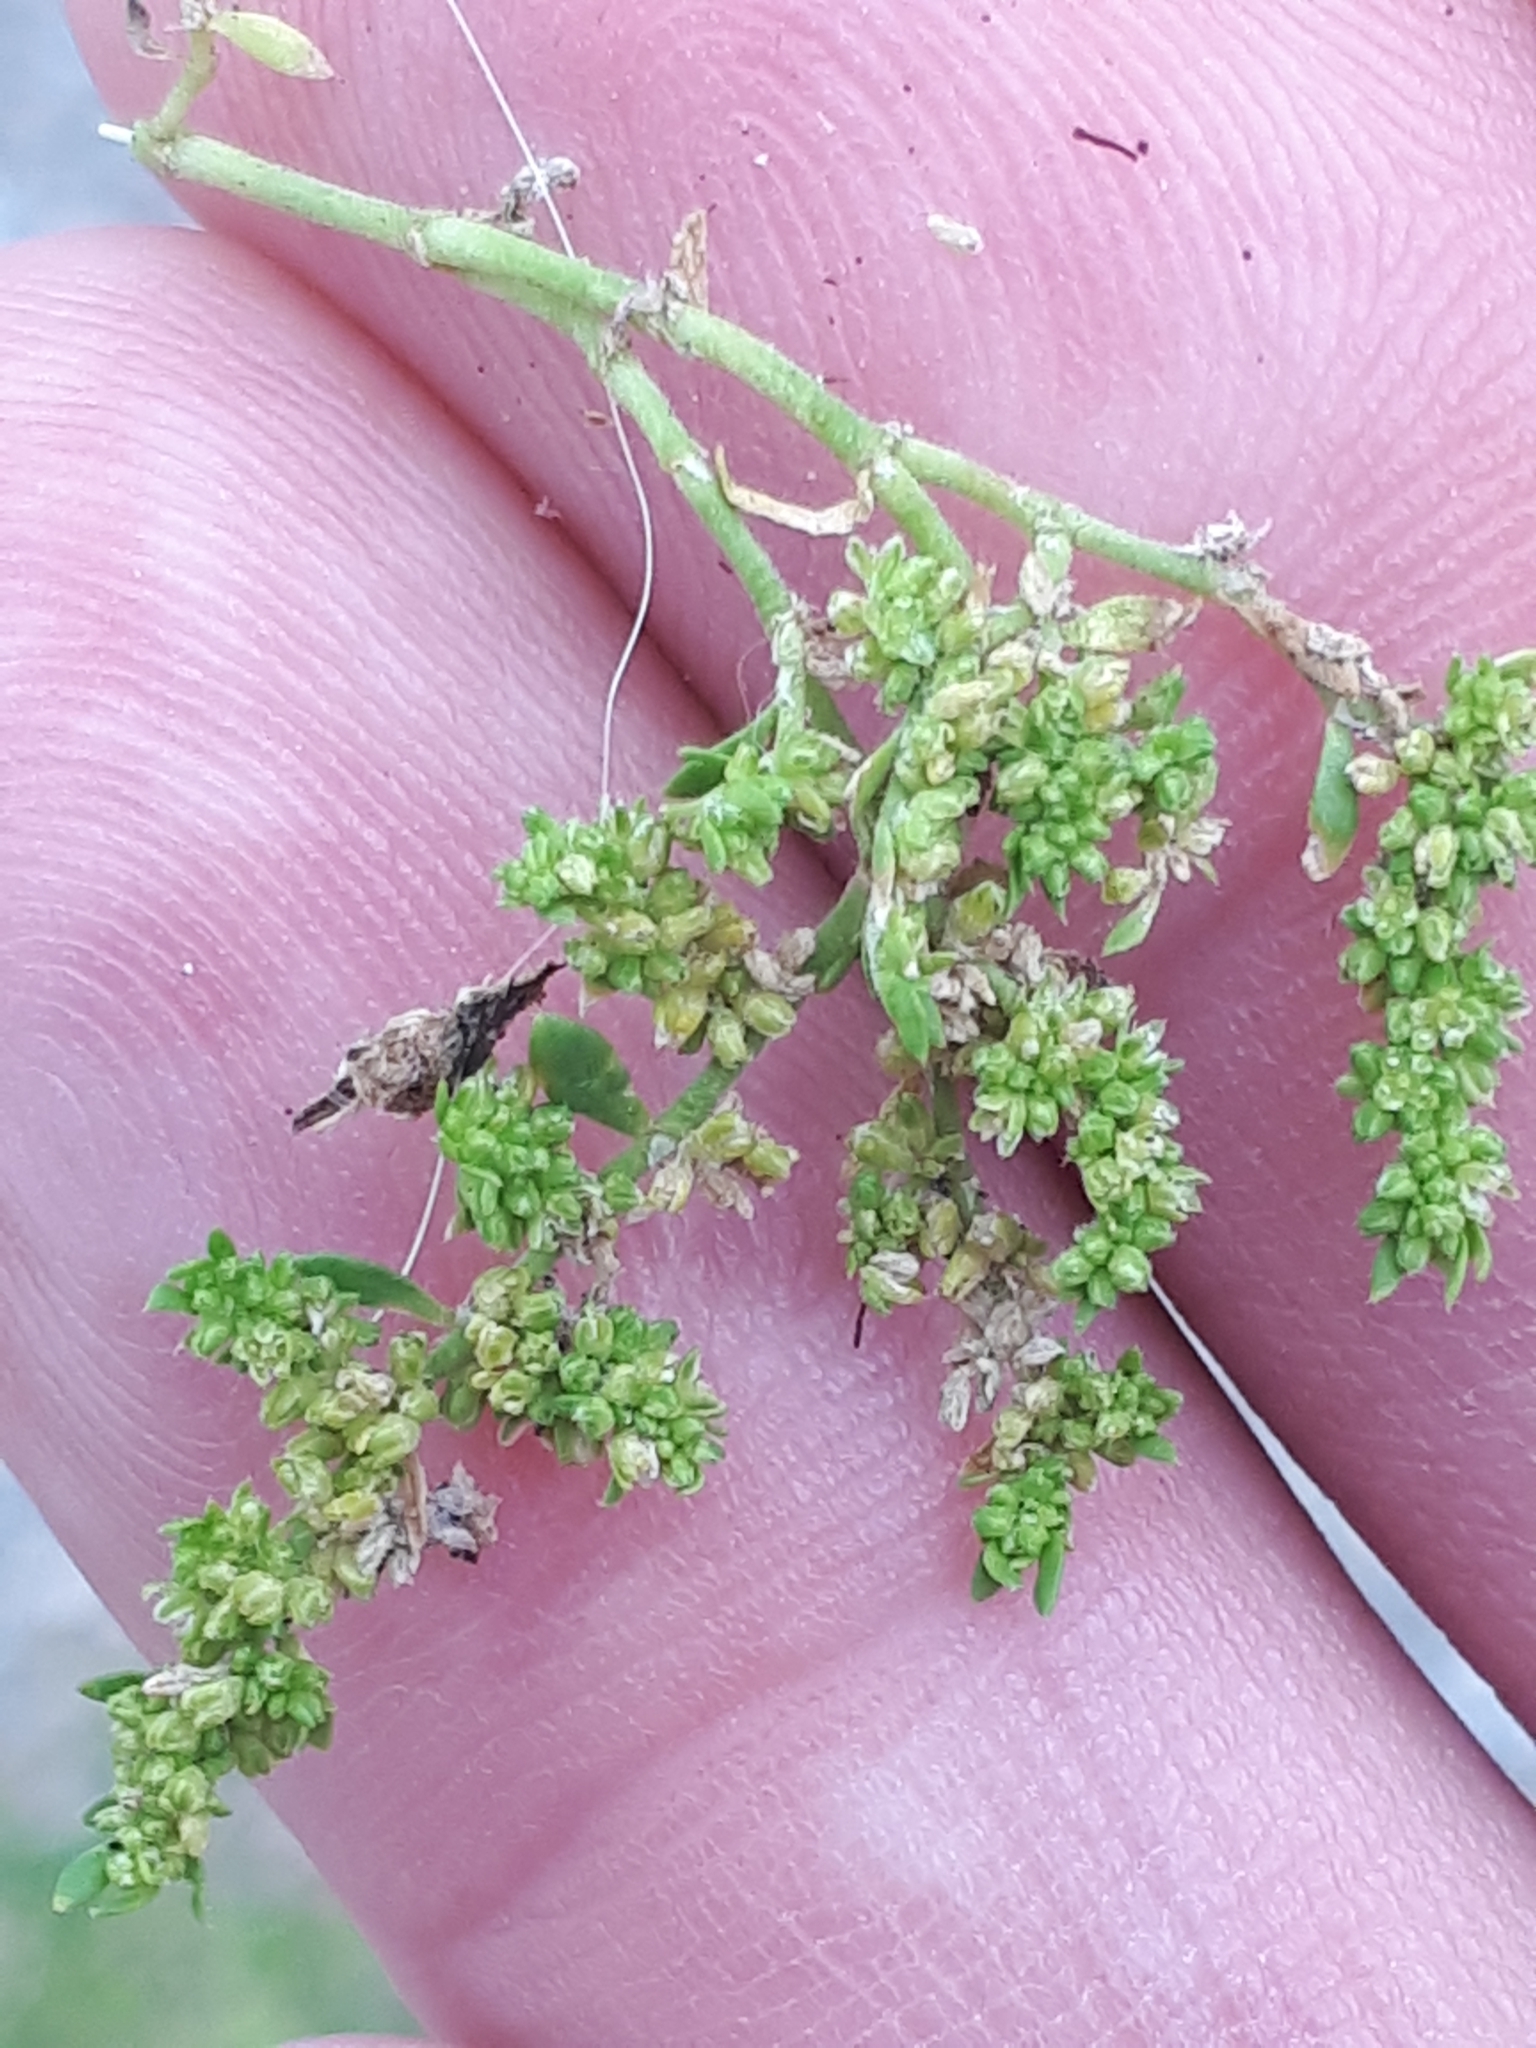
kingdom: Plantae
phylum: Tracheophyta
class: Magnoliopsida
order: Caryophyllales
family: Caryophyllaceae
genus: Herniaria
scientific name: Herniaria glabra
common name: Smooth rupturewort
